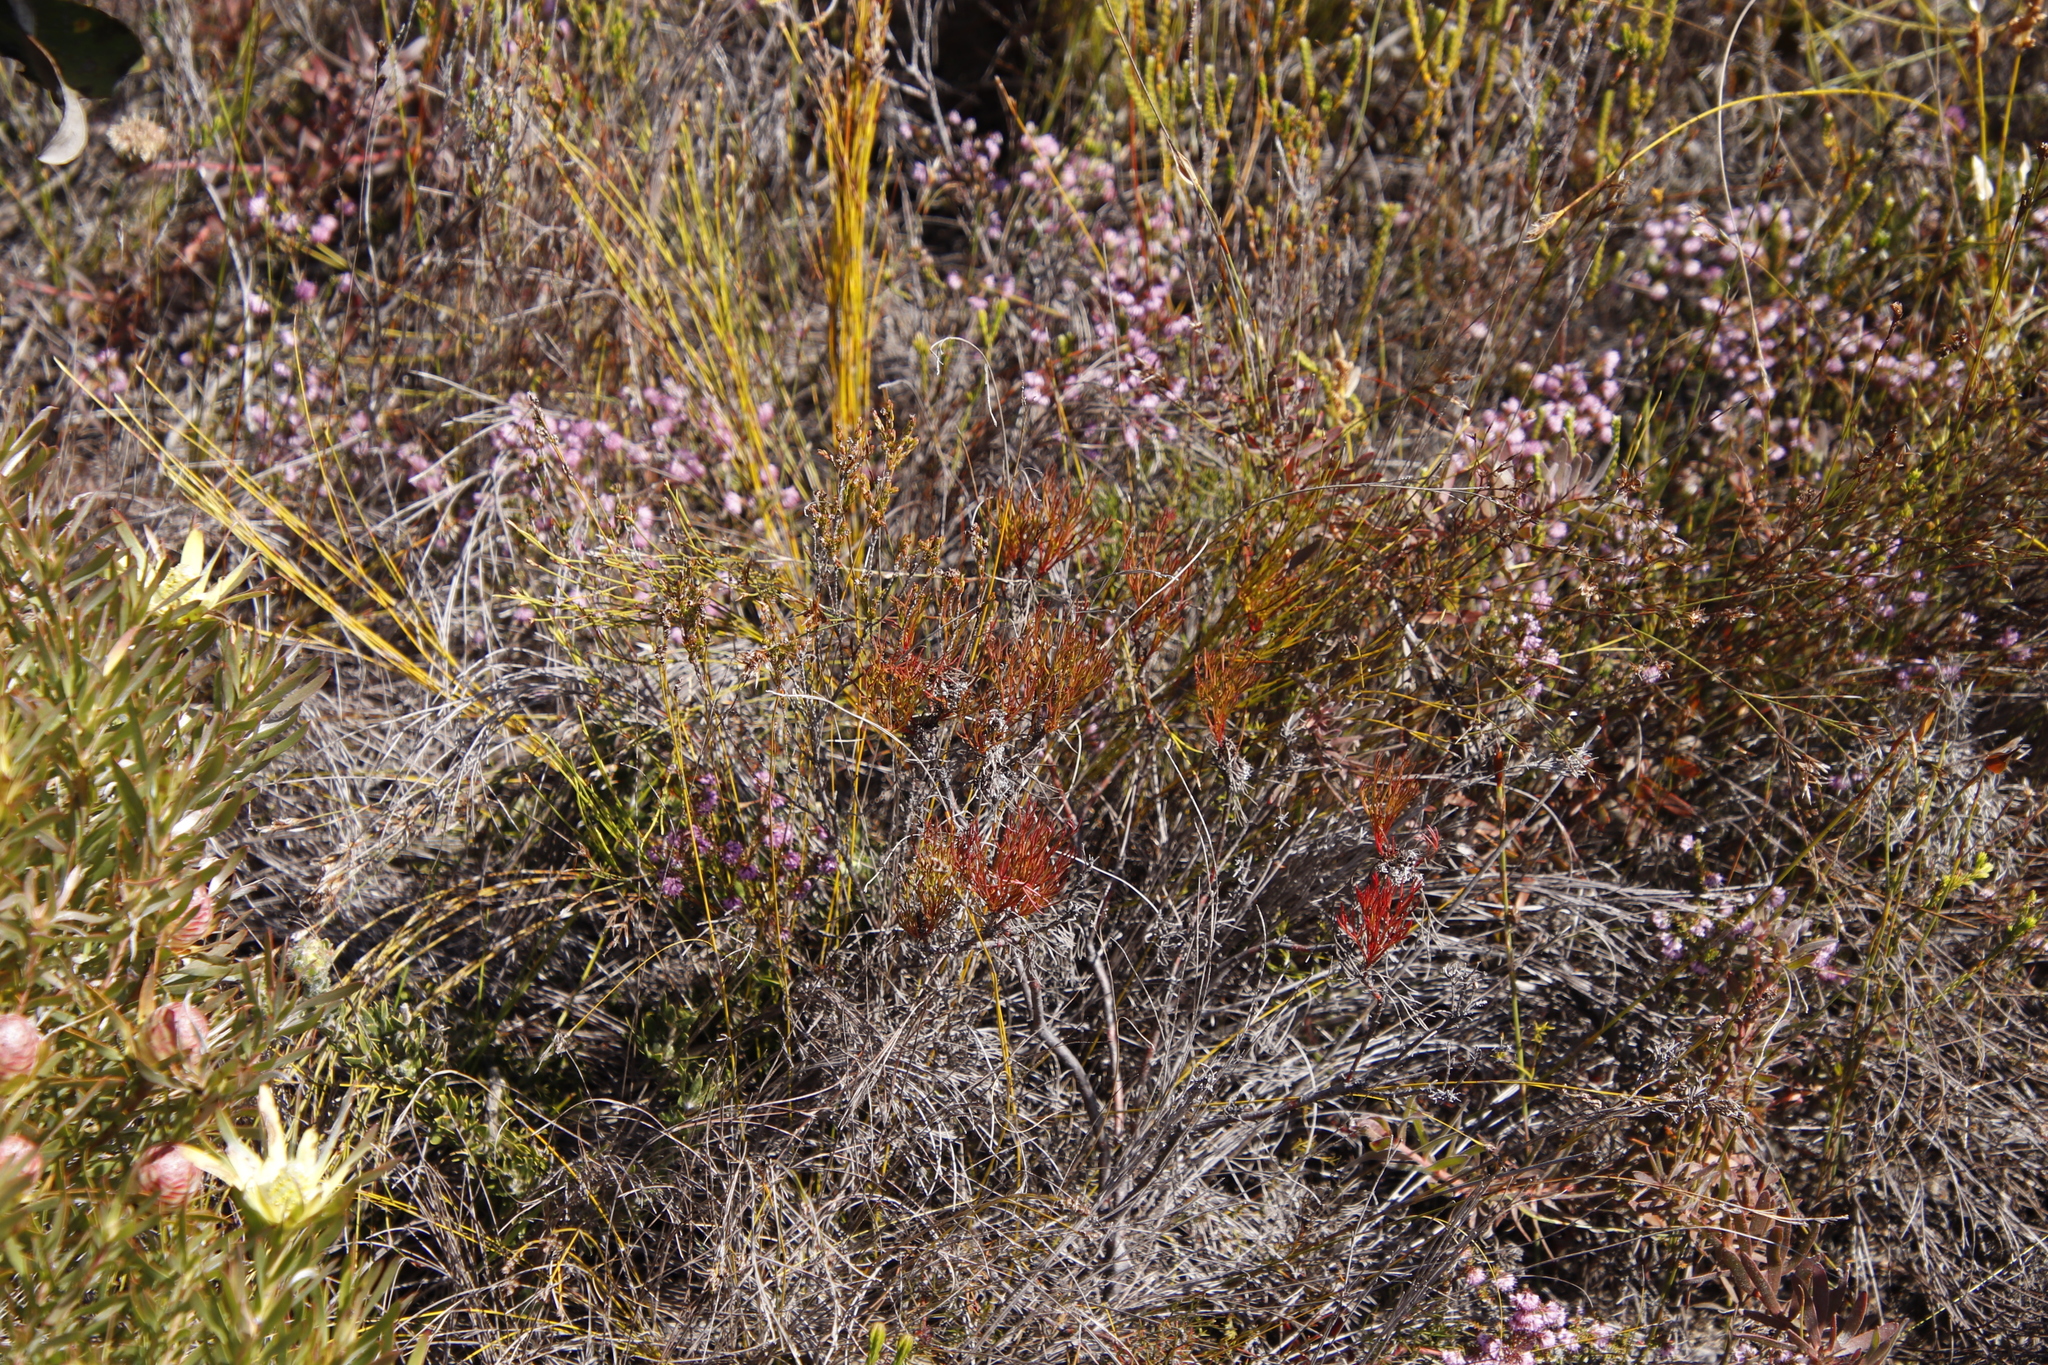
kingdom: Plantae
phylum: Tracheophyta
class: Magnoliopsida
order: Proteales
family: Proteaceae
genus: Serruria
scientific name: Serruria bolusii
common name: Agulhas spiderhead
